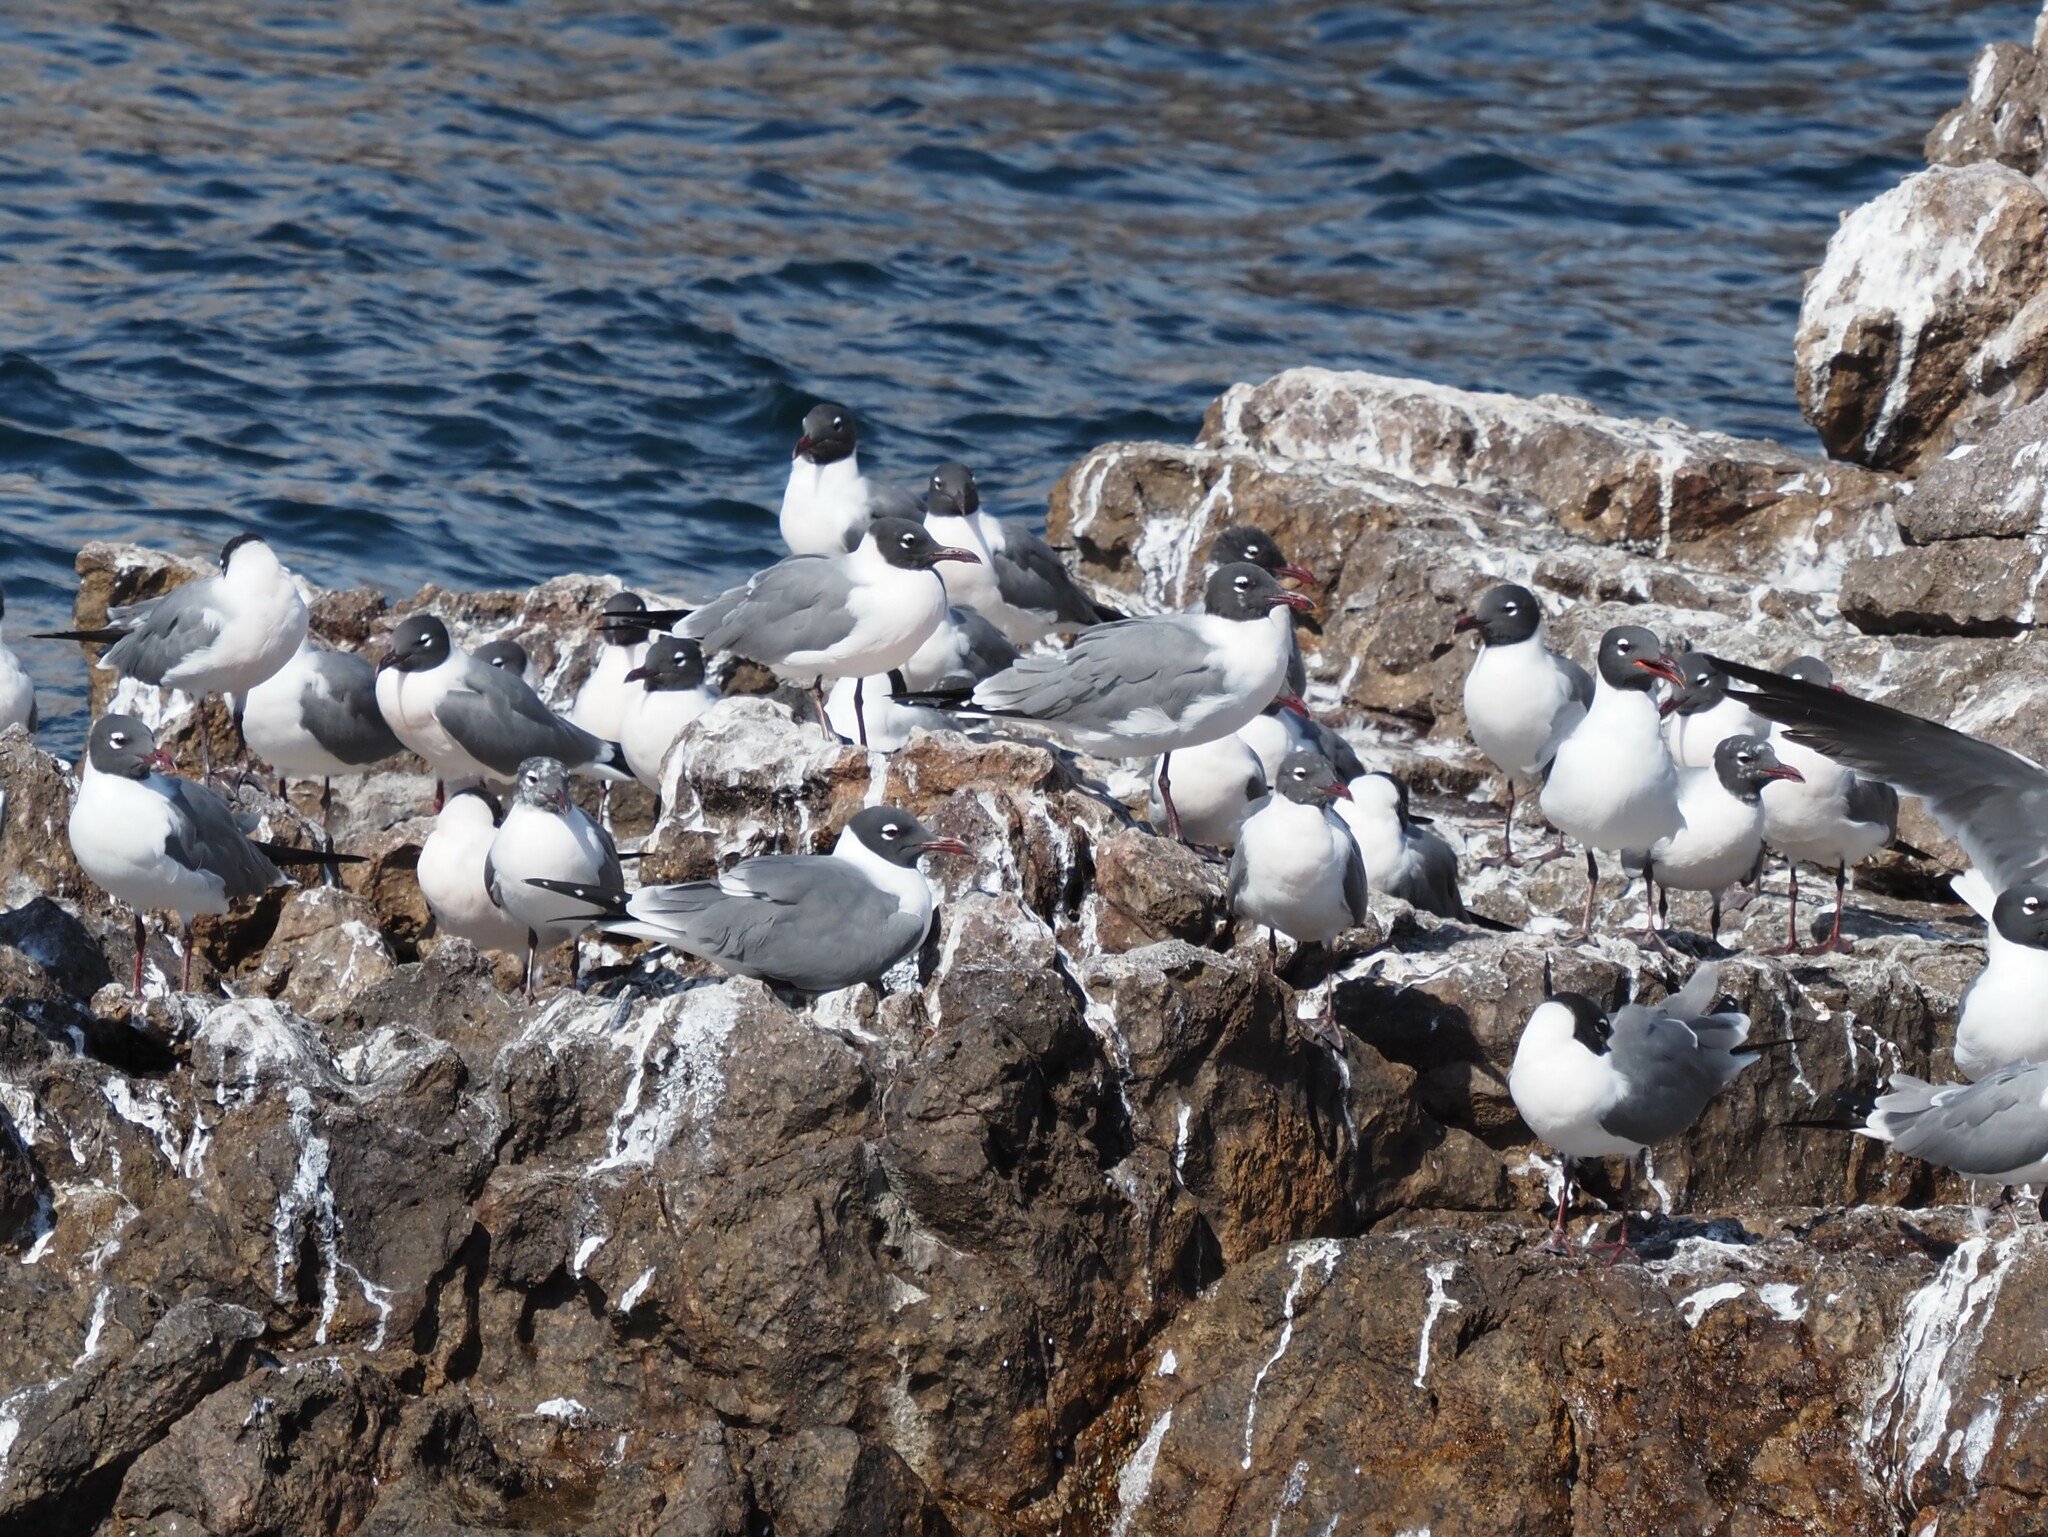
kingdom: Animalia
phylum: Chordata
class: Aves
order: Charadriiformes
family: Laridae
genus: Leucophaeus
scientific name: Leucophaeus atricilla
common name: Laughing gull
